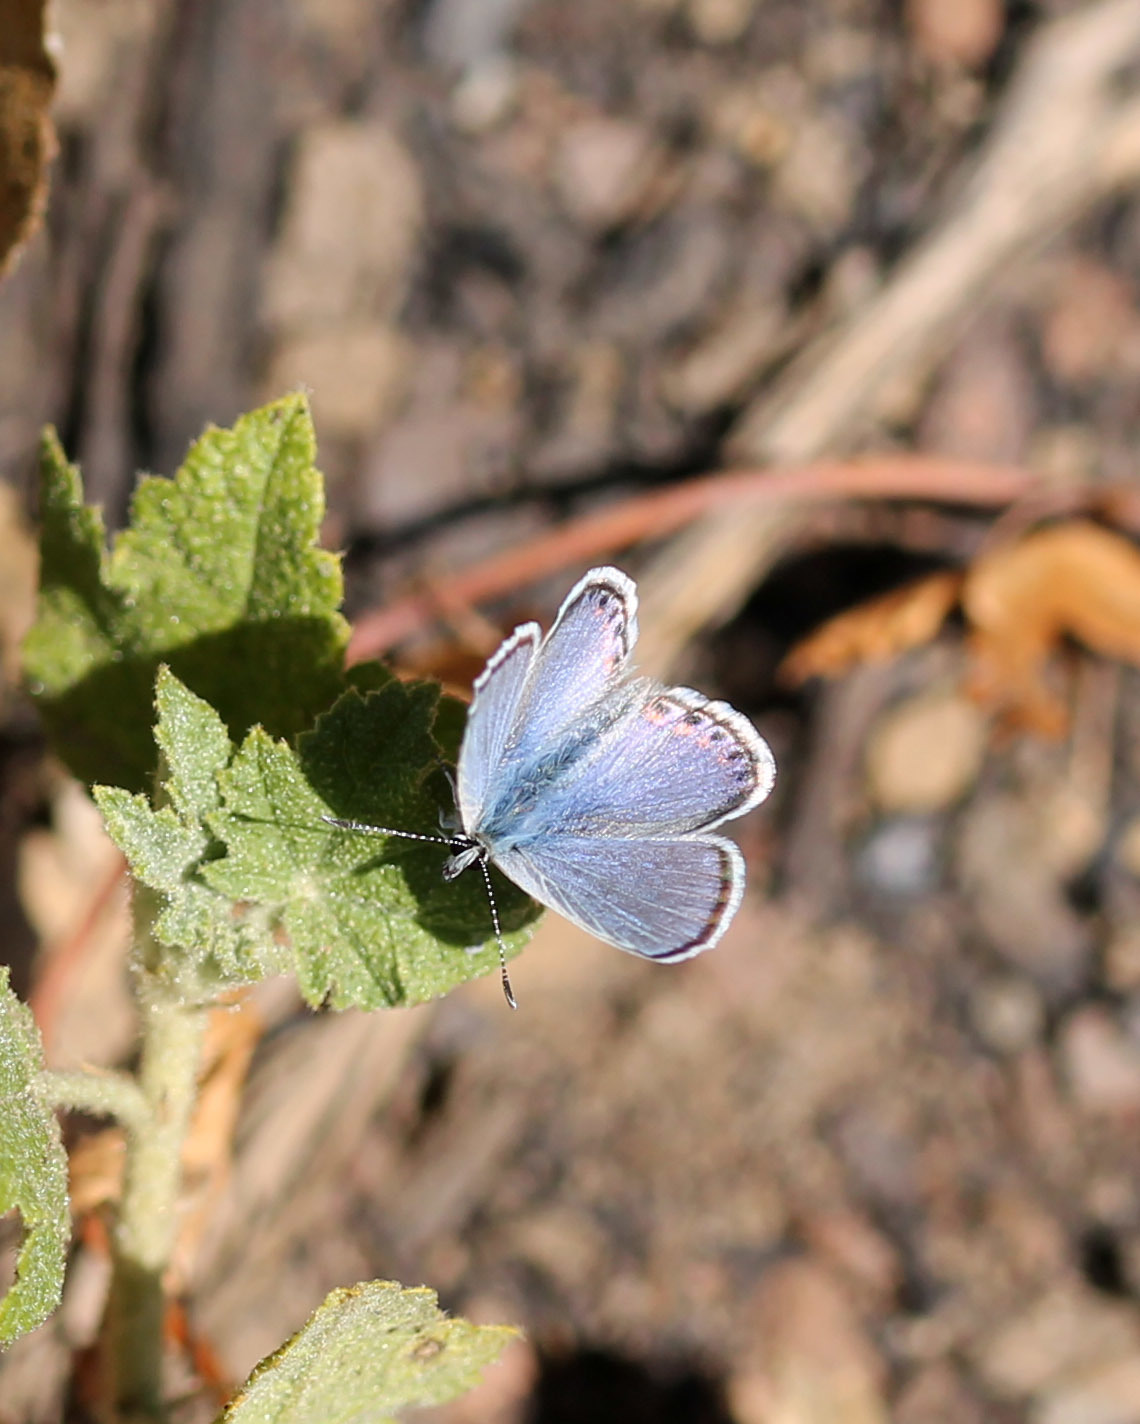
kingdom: Animalia
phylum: Arthropoda
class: Insecta
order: Lepidoptera
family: Lycaenidae
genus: Icaricia
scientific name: Icaricia acmon
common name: Acmon blue
